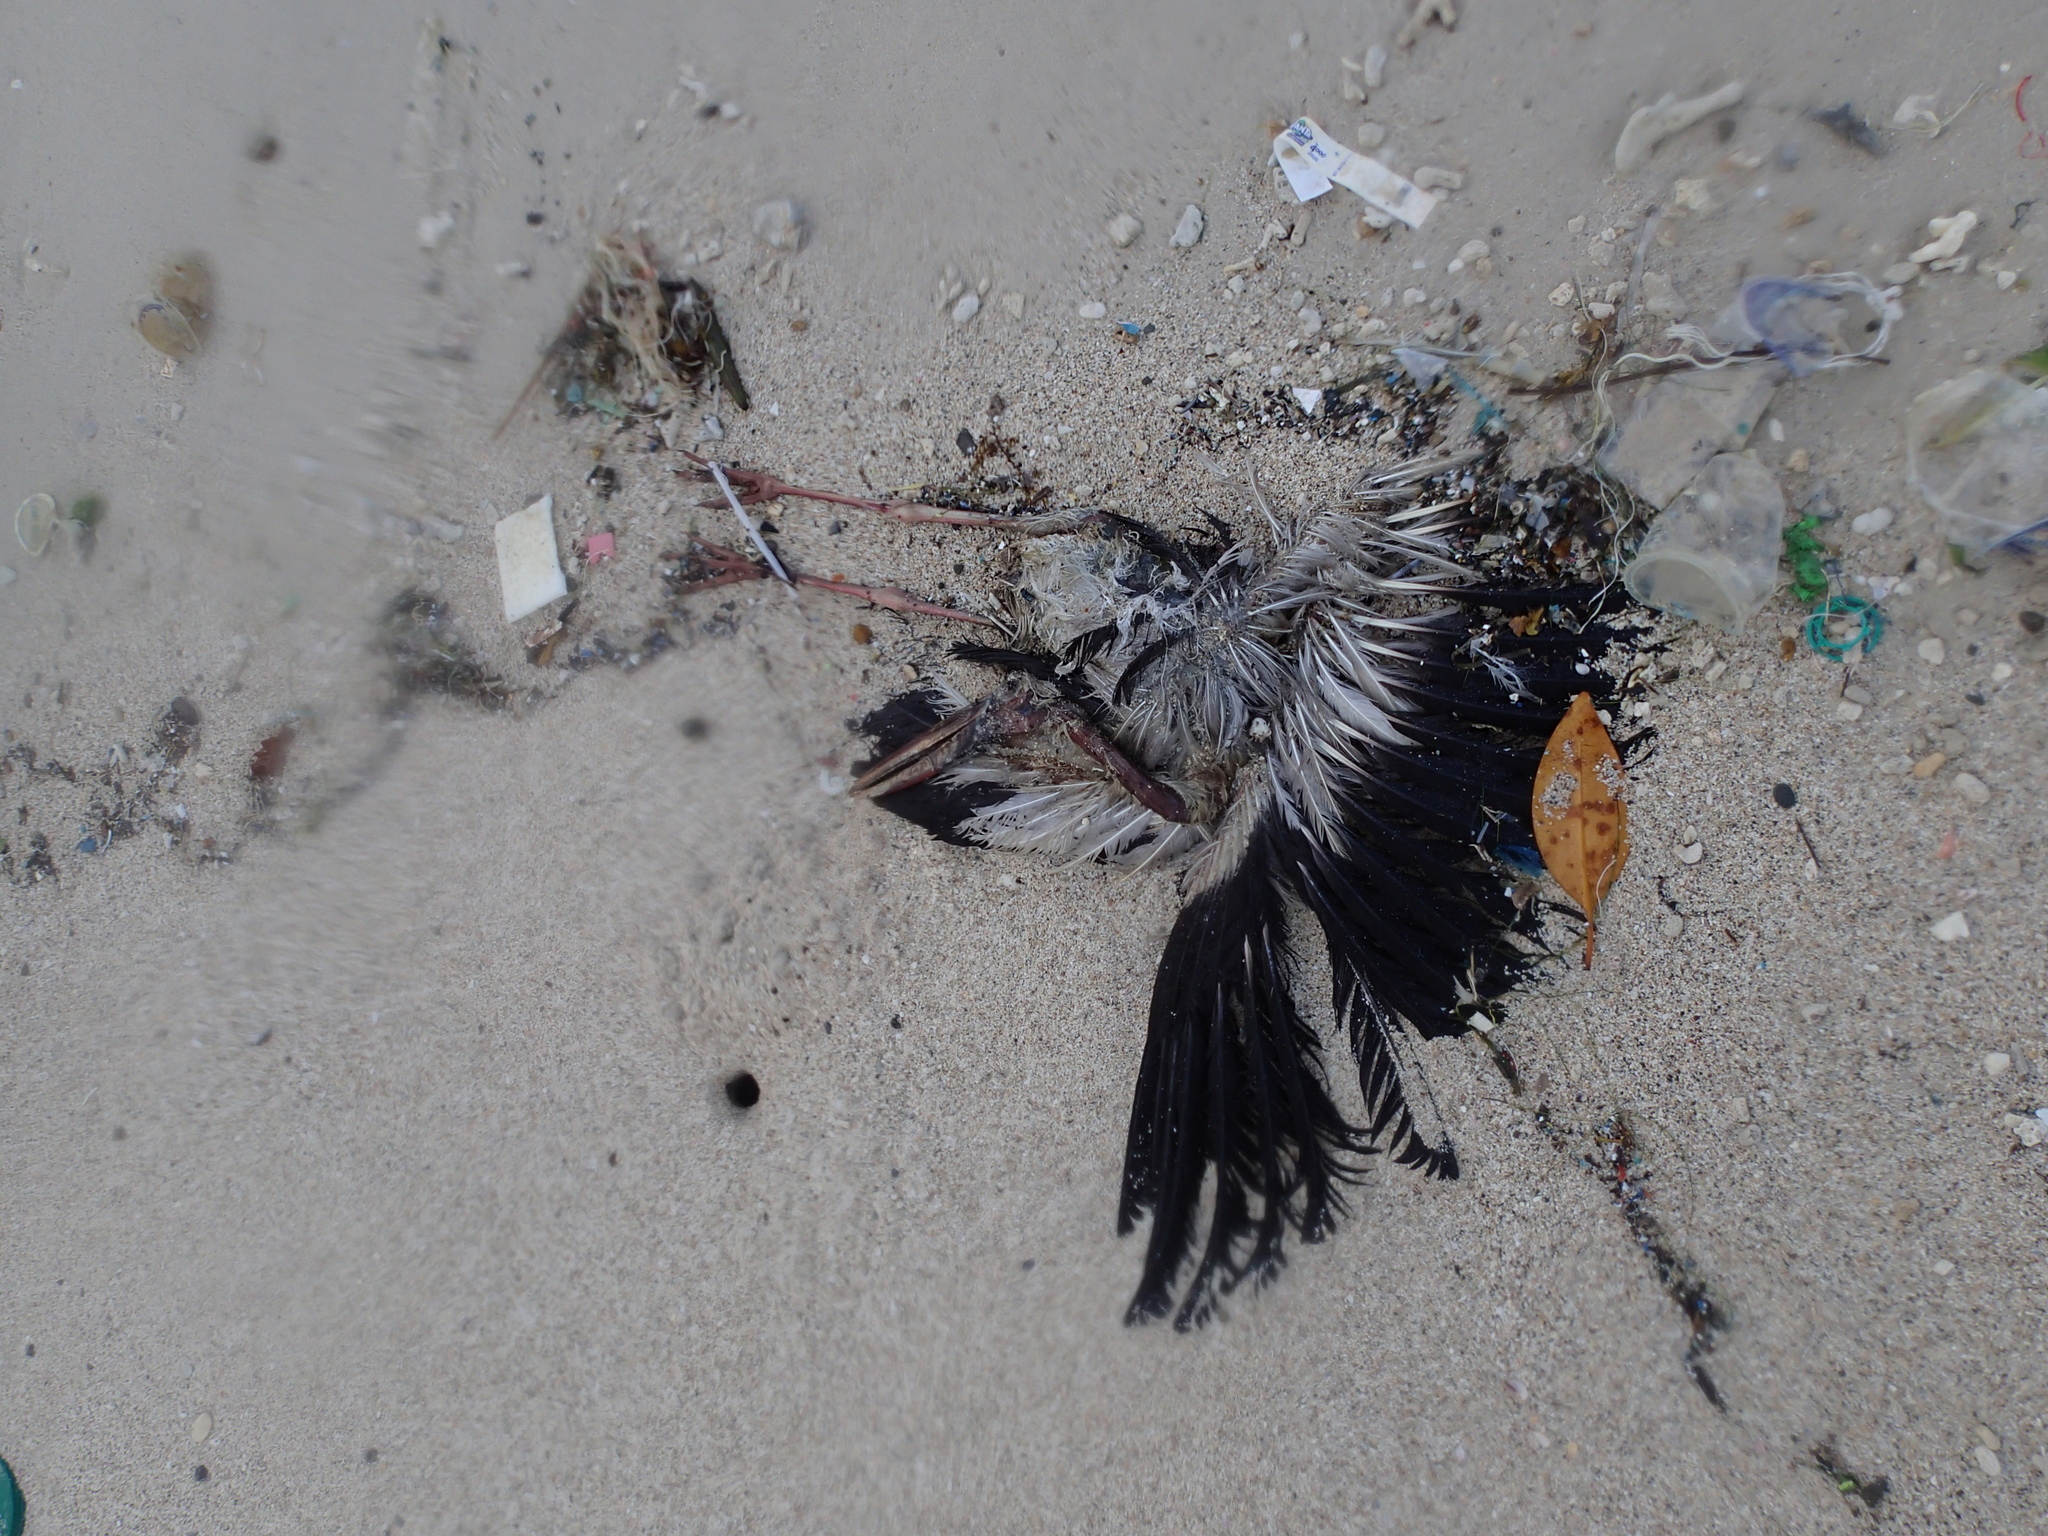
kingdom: Animalia
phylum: Chordata
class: Aves
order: Ciconiiformes
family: Ciconiidae
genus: Anastomus
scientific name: Anastomus oscitans
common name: Asian openbill
